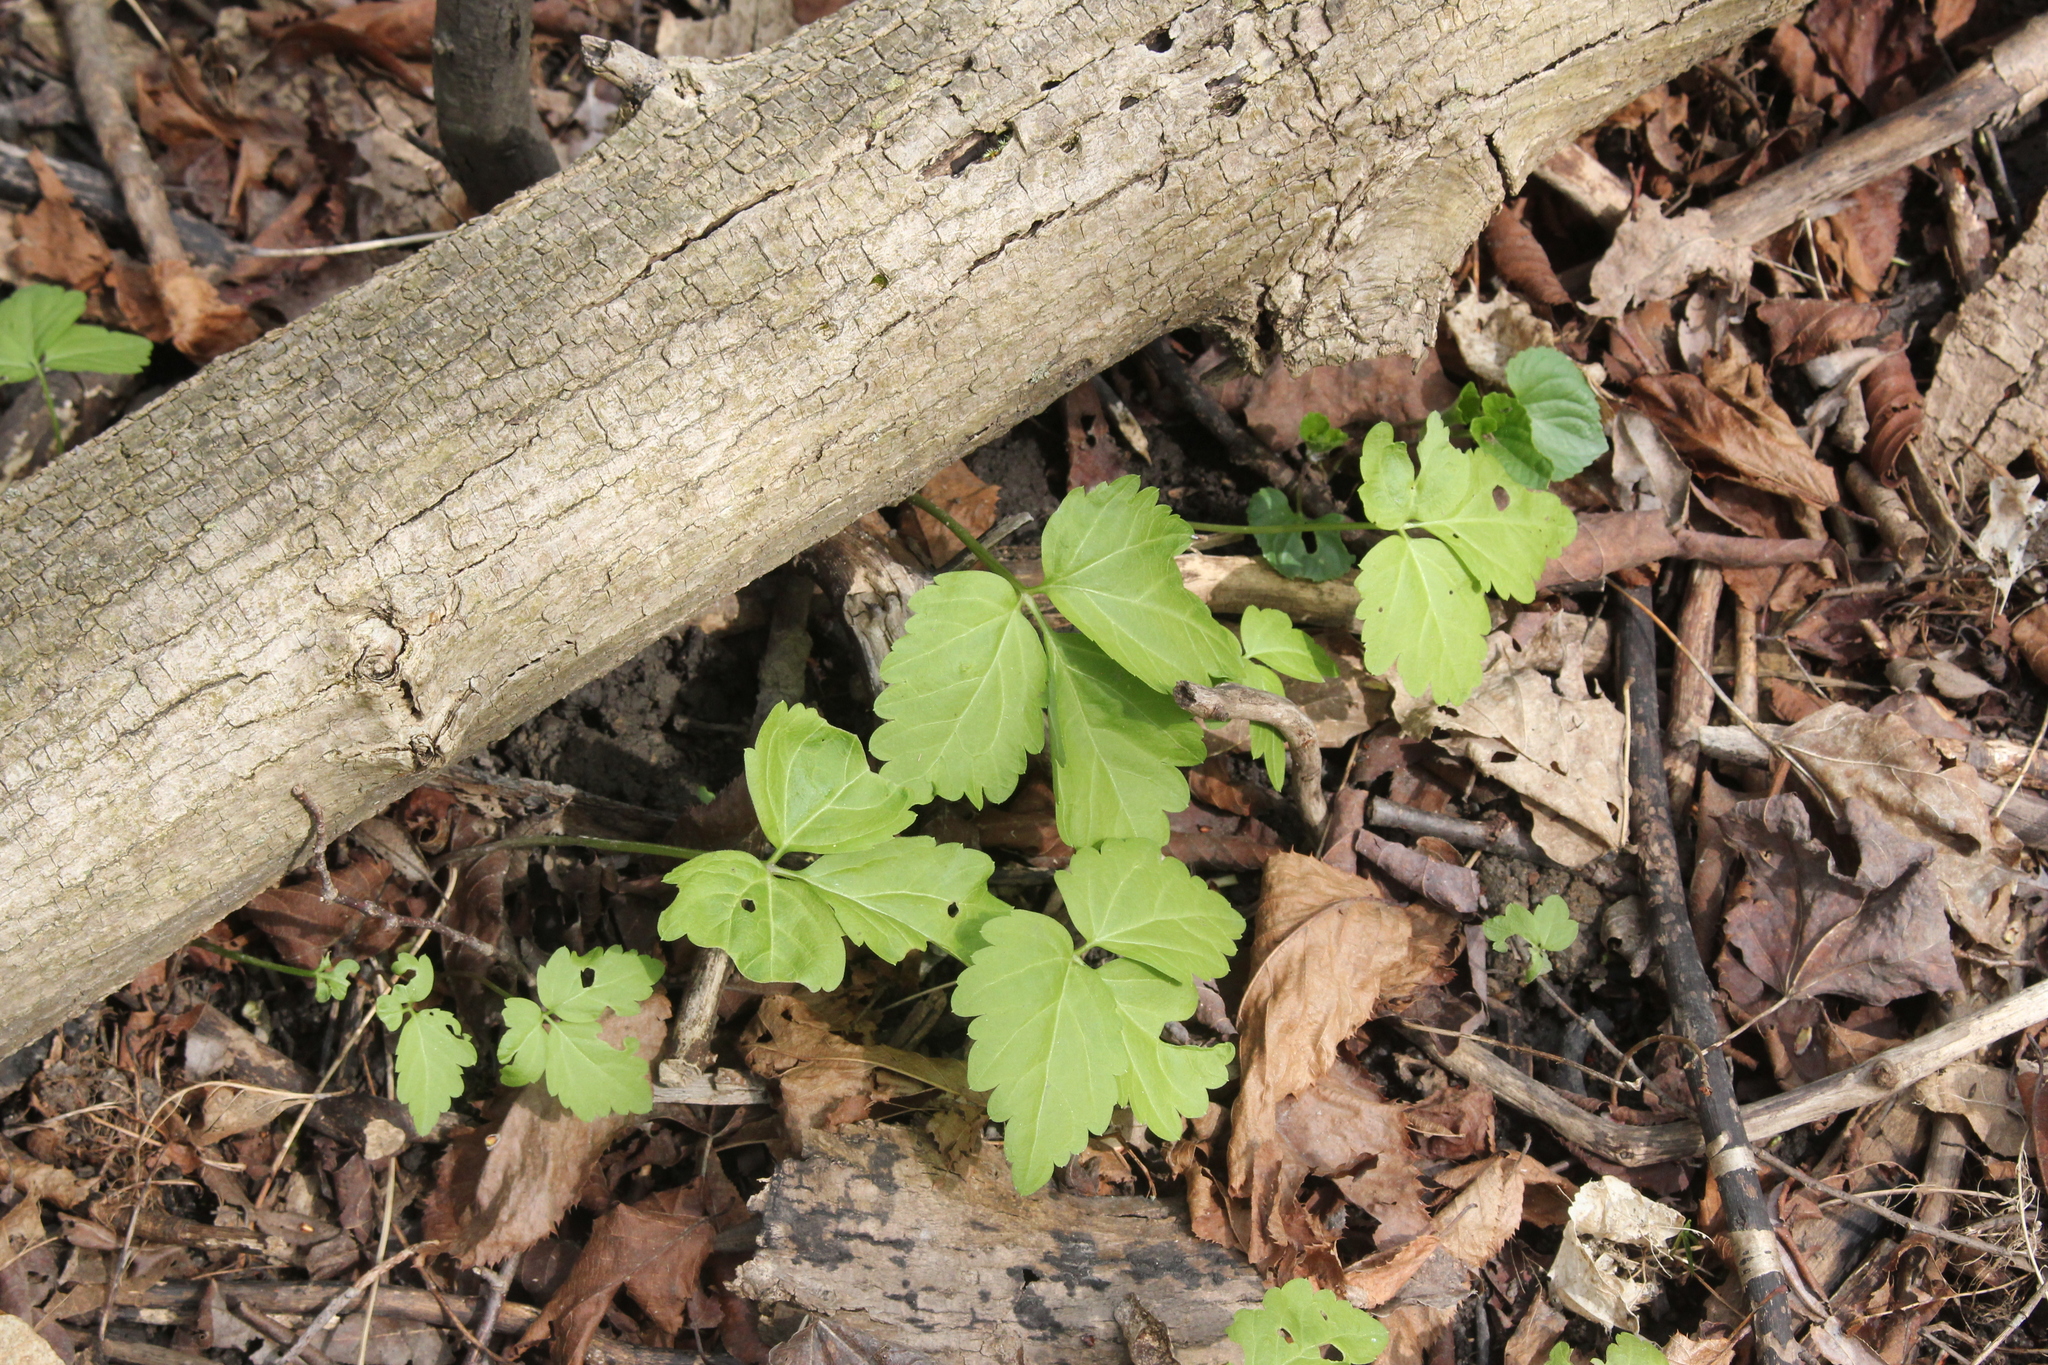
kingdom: Plantae
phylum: Tracheophyta
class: Magnoliopsida
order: Brassicales
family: Brassicaceae
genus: Cardamine
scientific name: Cardamine diphylla
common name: Broad-leaved toothwort
